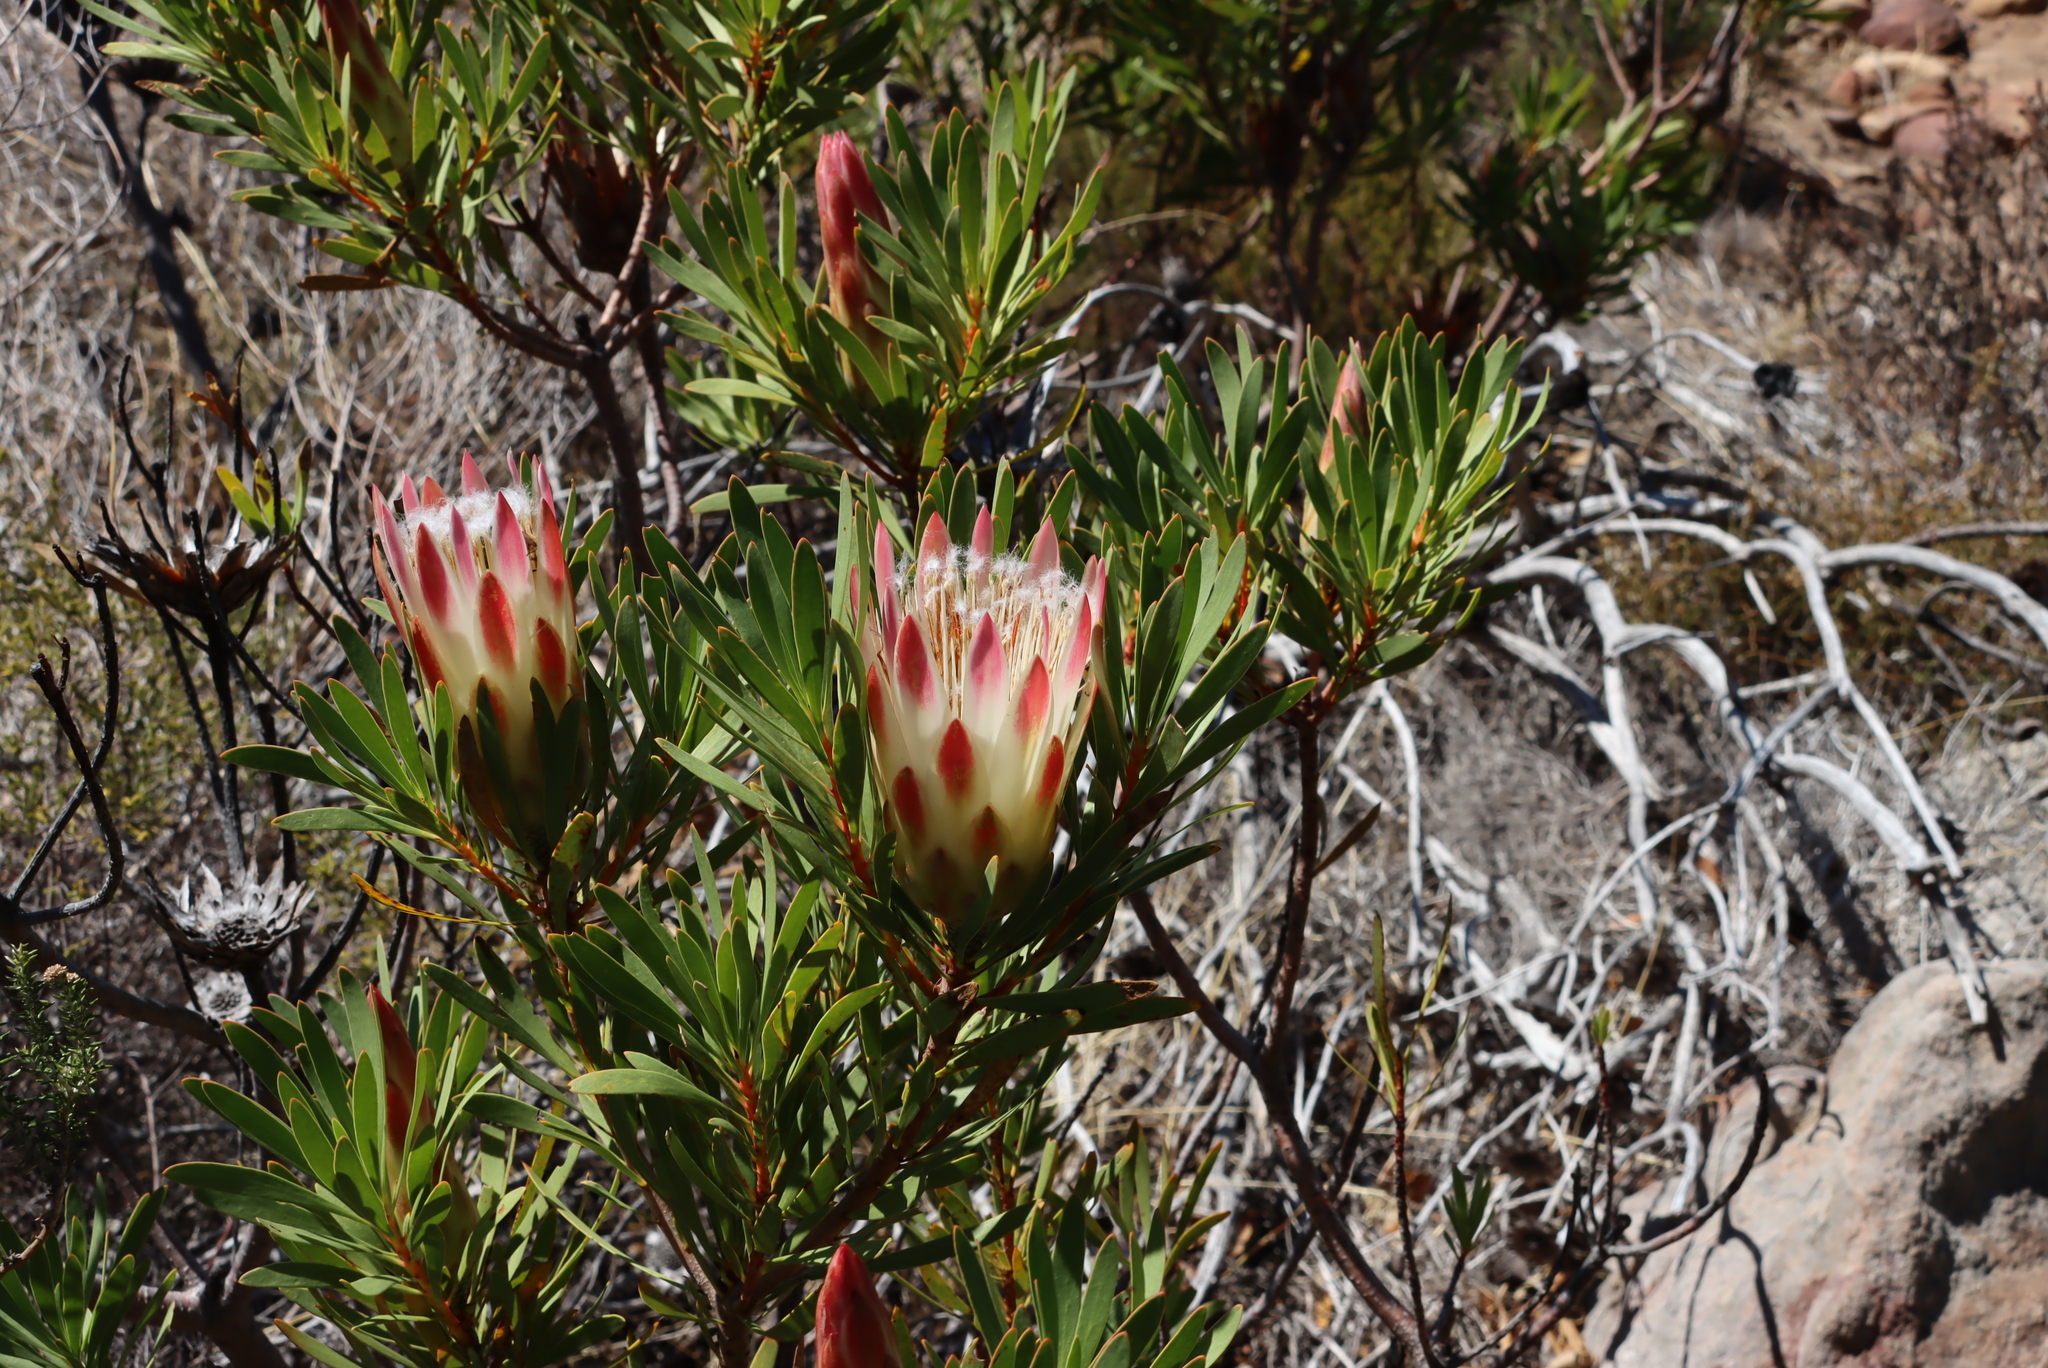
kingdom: Plantae
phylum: Tracheophyta
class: Magnoliopsida
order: Proteales
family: Proteaceae
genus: Protea
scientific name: Protea repens
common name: Sugarbush
